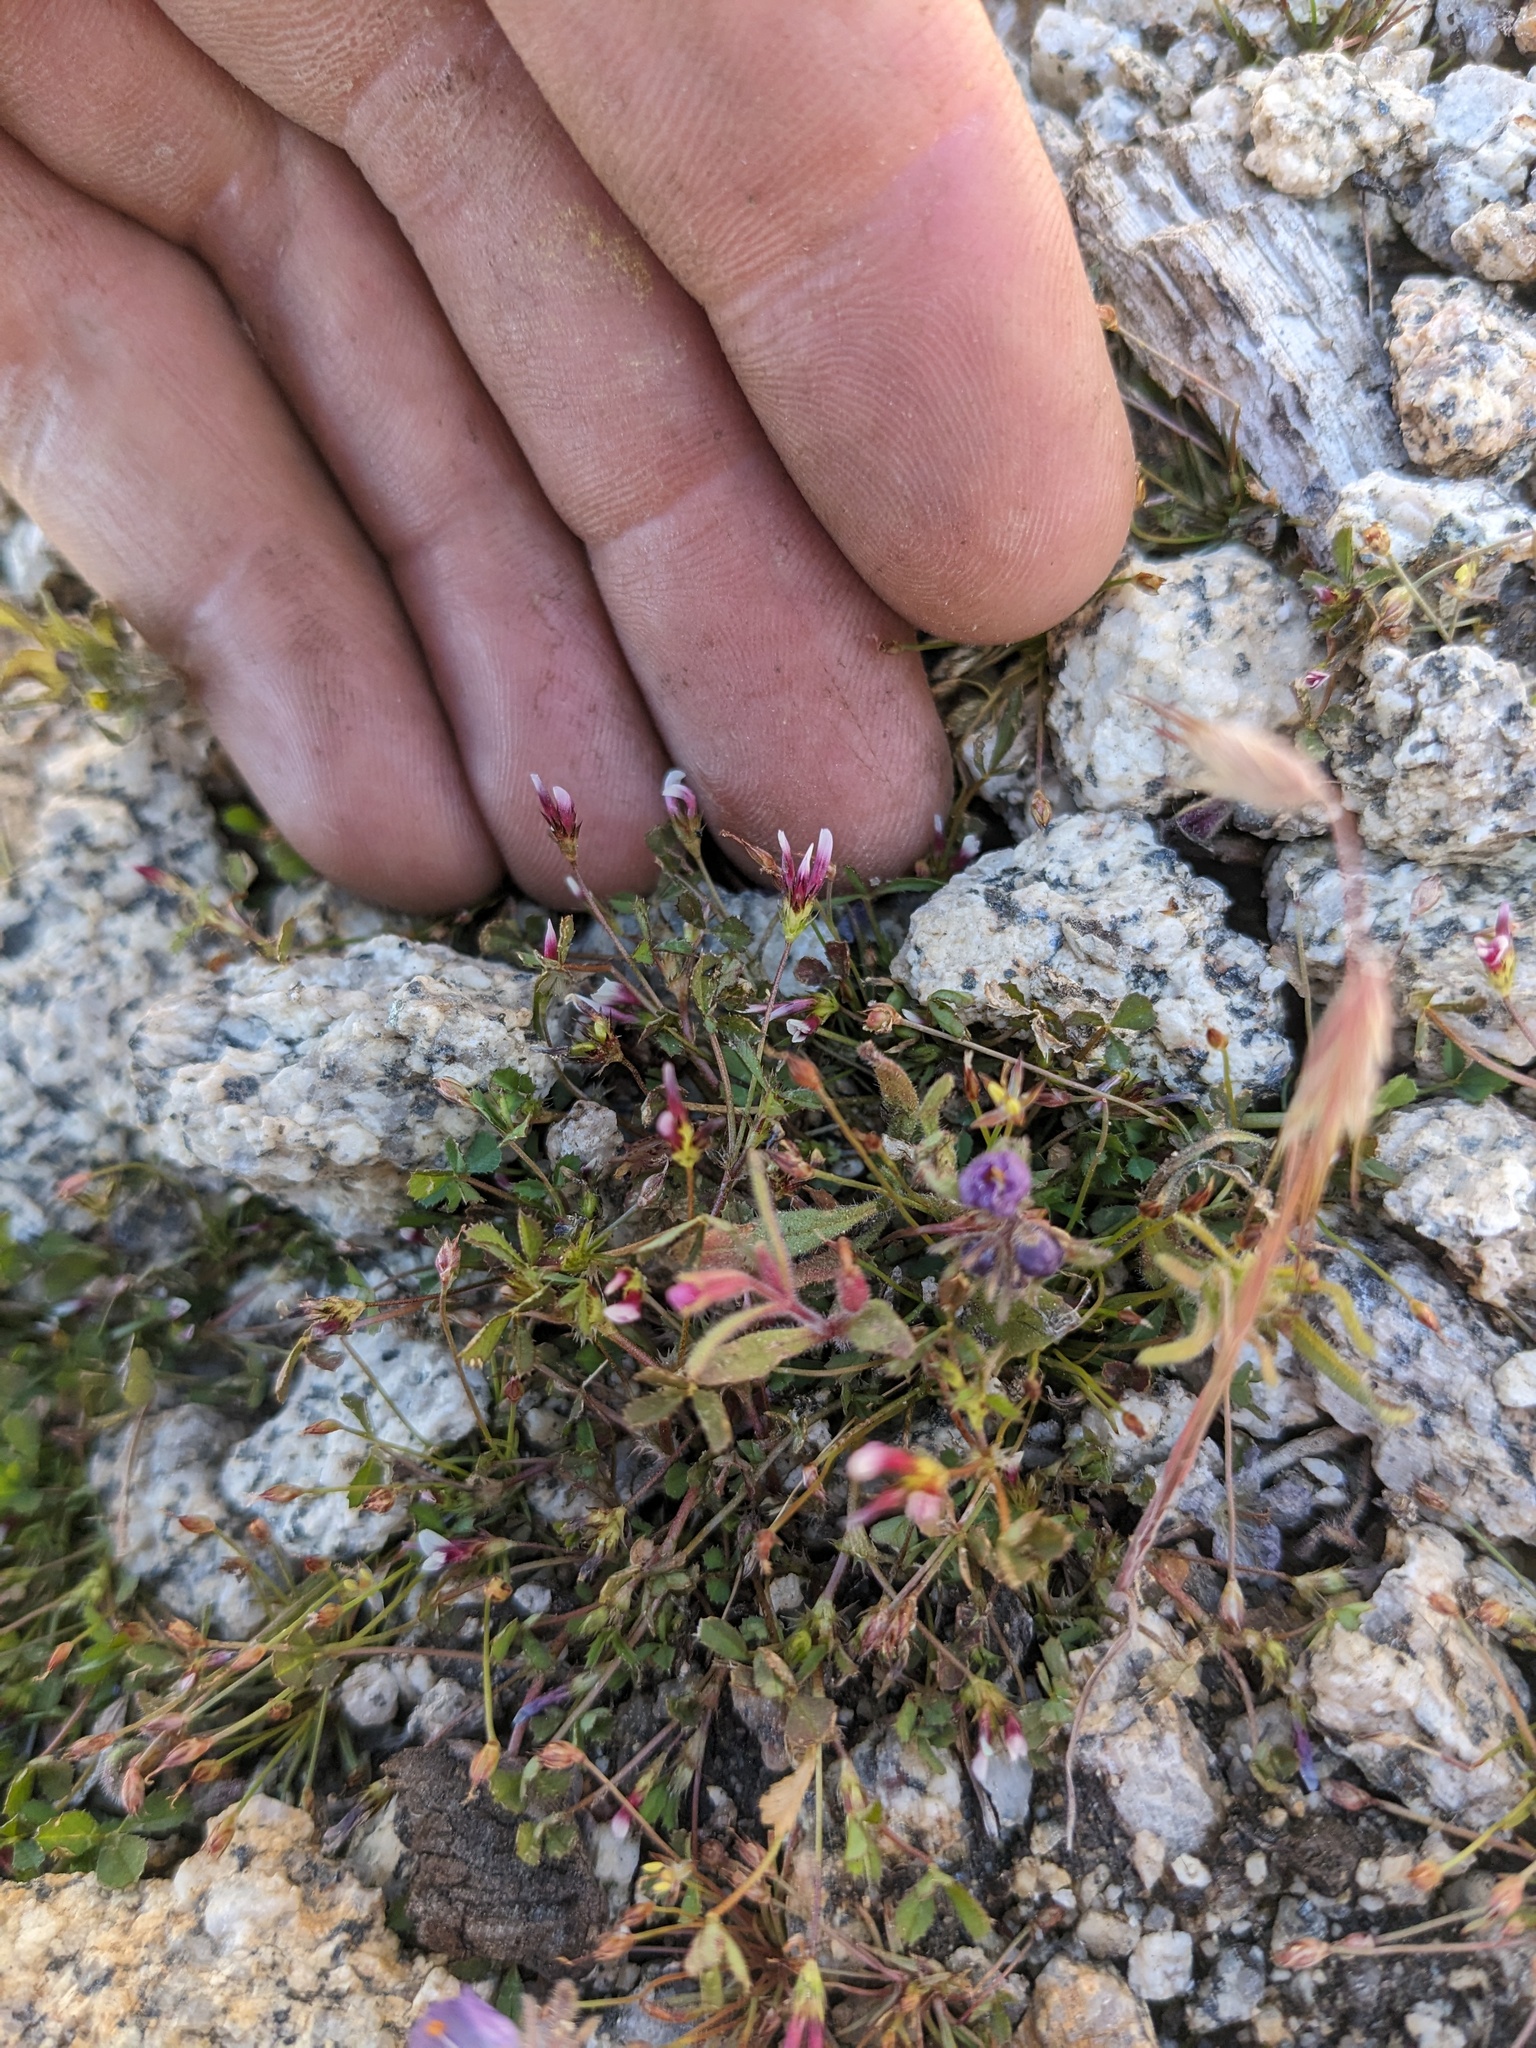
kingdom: Plantae
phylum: Tracheophyta
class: Magnoliopsida
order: Fabales
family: Fabaceae
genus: Trifolium
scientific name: Trifolium variegatum
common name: Whitetip clover
